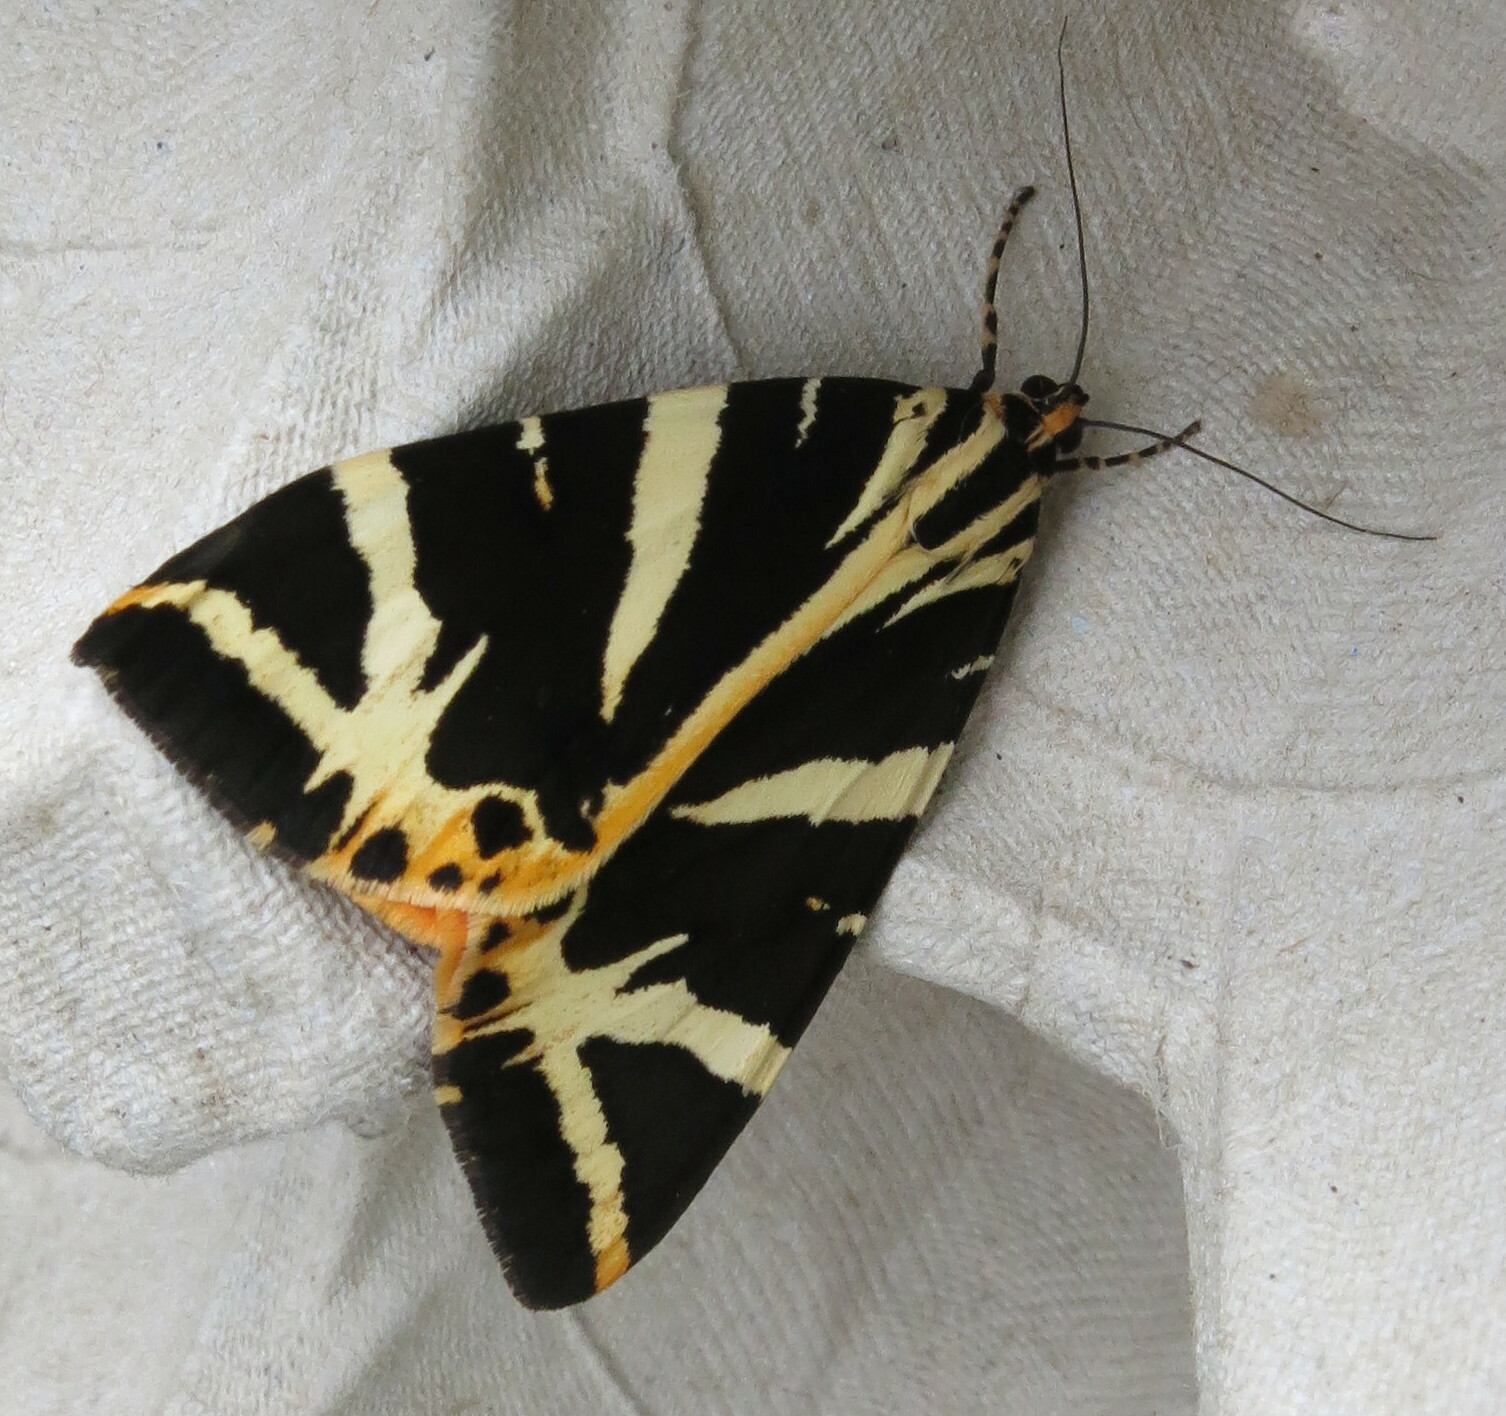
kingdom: Animalia
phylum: Arthropoda
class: Insecta
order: Lepidoptera
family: Erebidae
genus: Euplagia
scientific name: Euplagia quadripunctaria
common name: Jersey tiger
